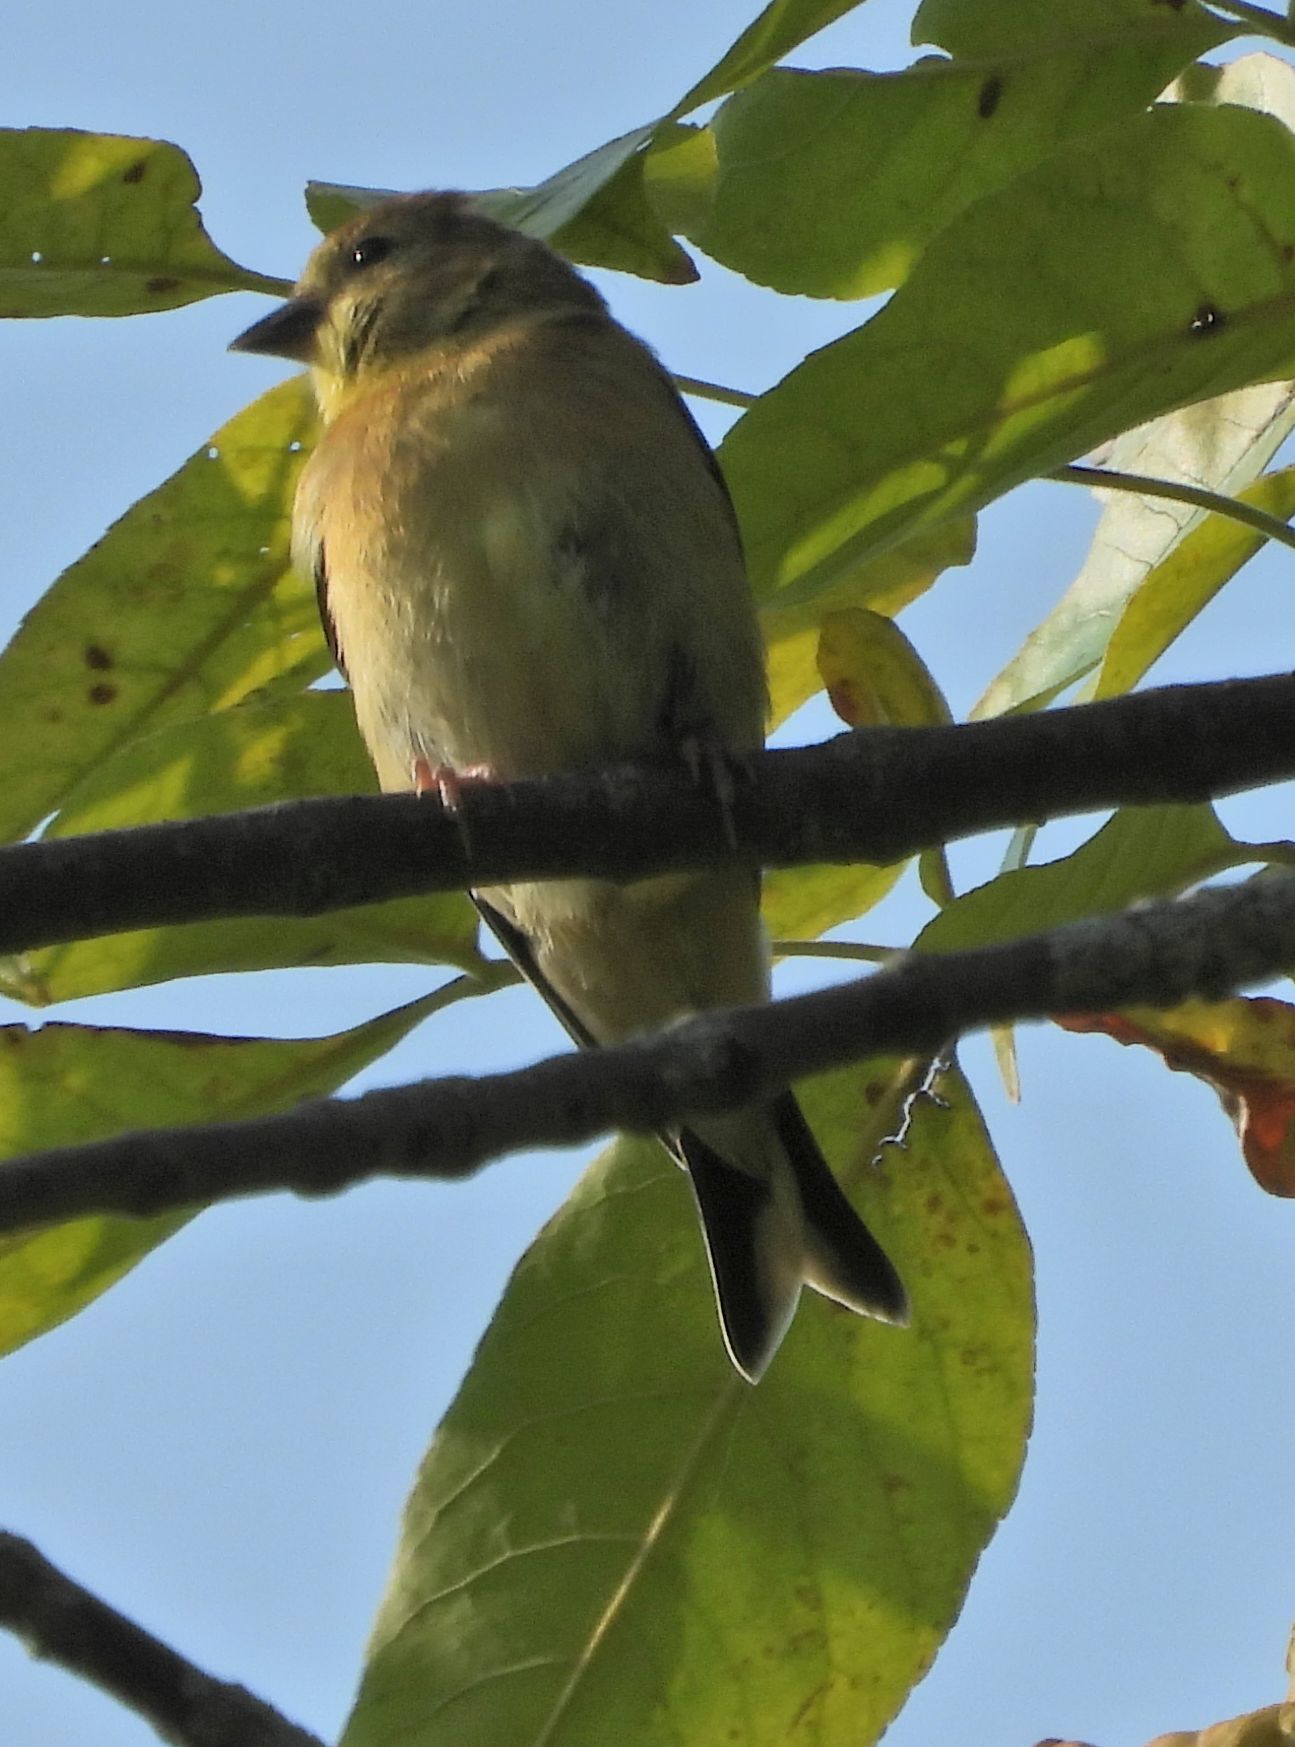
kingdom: Animalia
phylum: Chordata
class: Aves
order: Passeriformes
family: Fringillidae
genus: Spinus
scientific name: Spinus tristis
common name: American goldfinch
